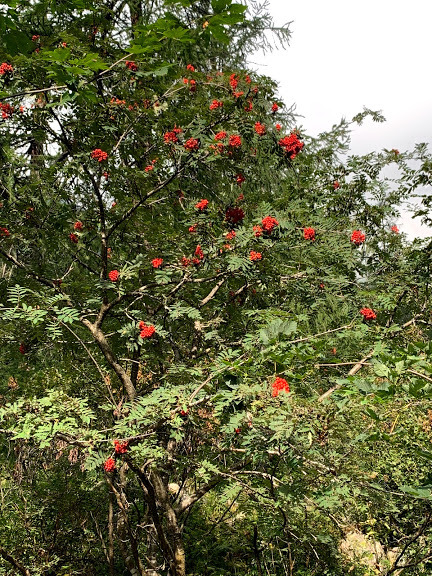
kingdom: Plantae
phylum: Tracheophyta
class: Magnoliopsida
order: Rosales
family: Rosaceae
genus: Sorbus
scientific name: Sorbus aucuparia
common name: Rowan
